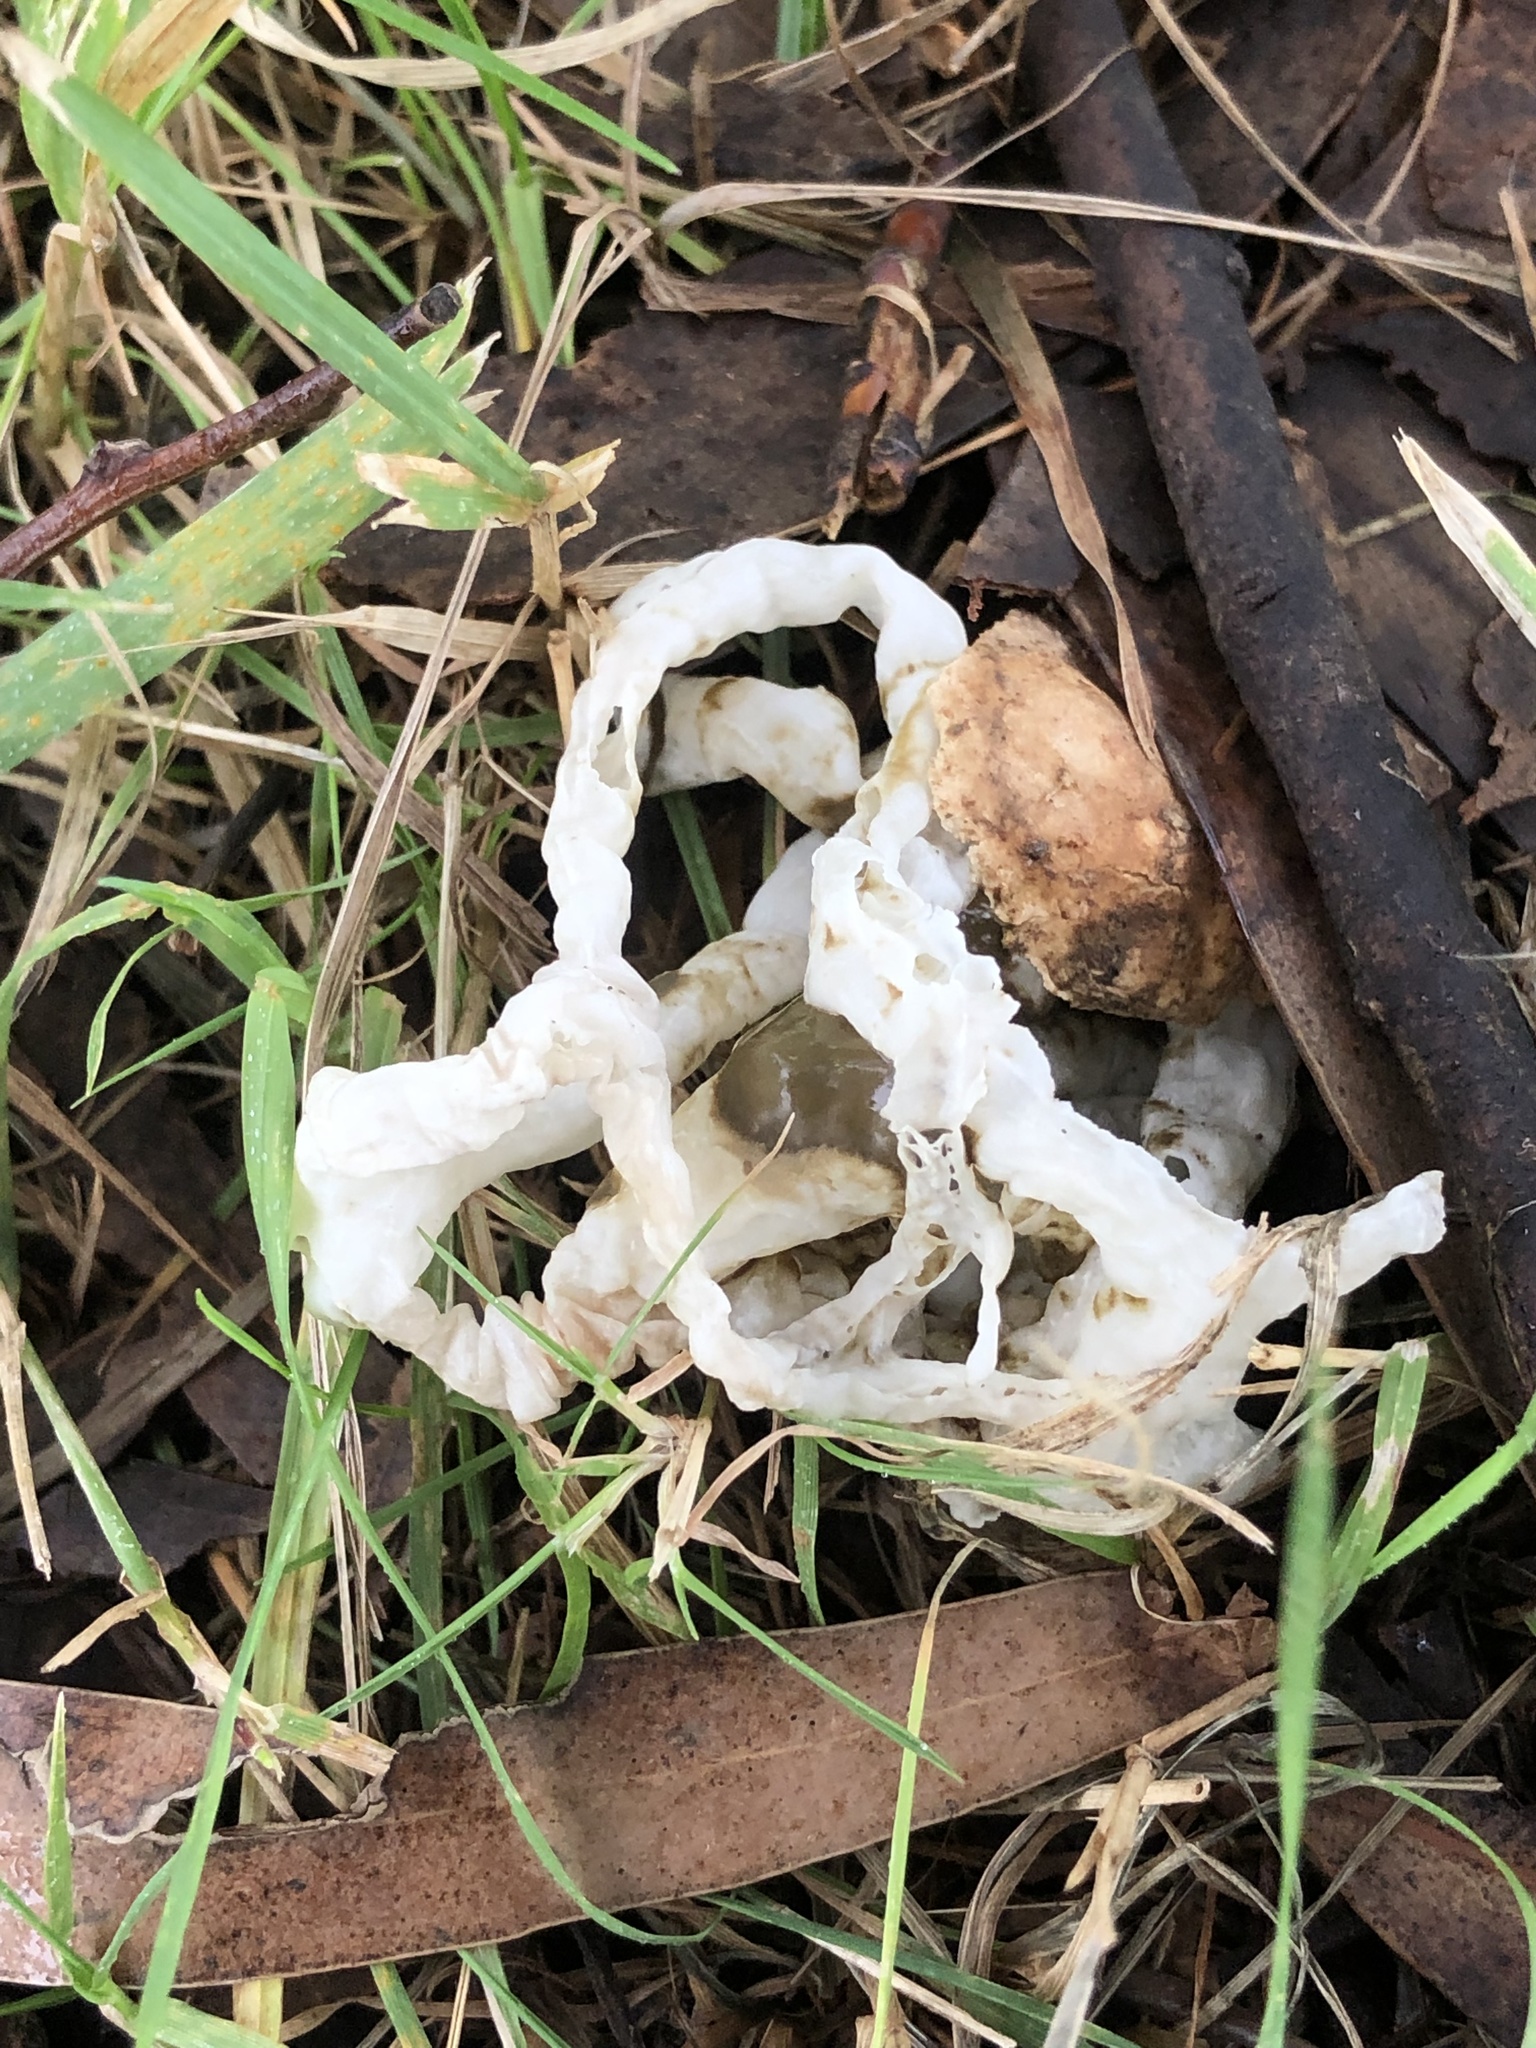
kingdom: Fungi
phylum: Basidiomycota
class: Agaricomycetes
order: Phallales
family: Phallaceae
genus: Ileodictyon
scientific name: Ileodictyon cibarium
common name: Basket fungus
